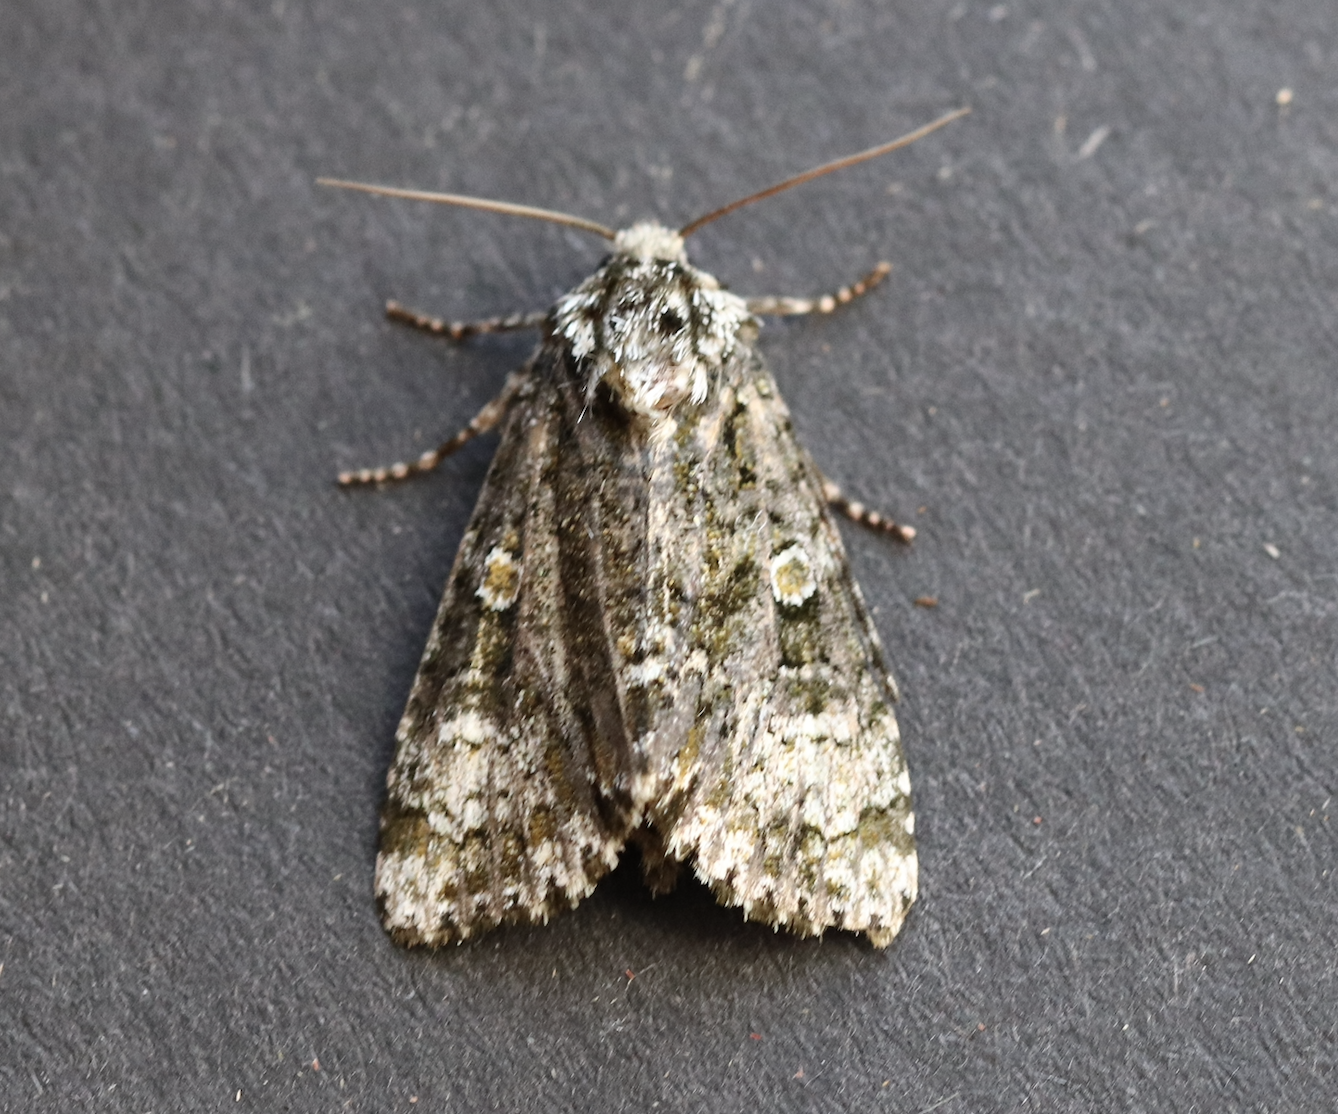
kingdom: Animalia
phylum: Arthropoda
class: Insecta
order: Lepidoptera
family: Noctuidae
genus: Craniophora
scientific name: Craniophora ligustri
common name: Coronet
